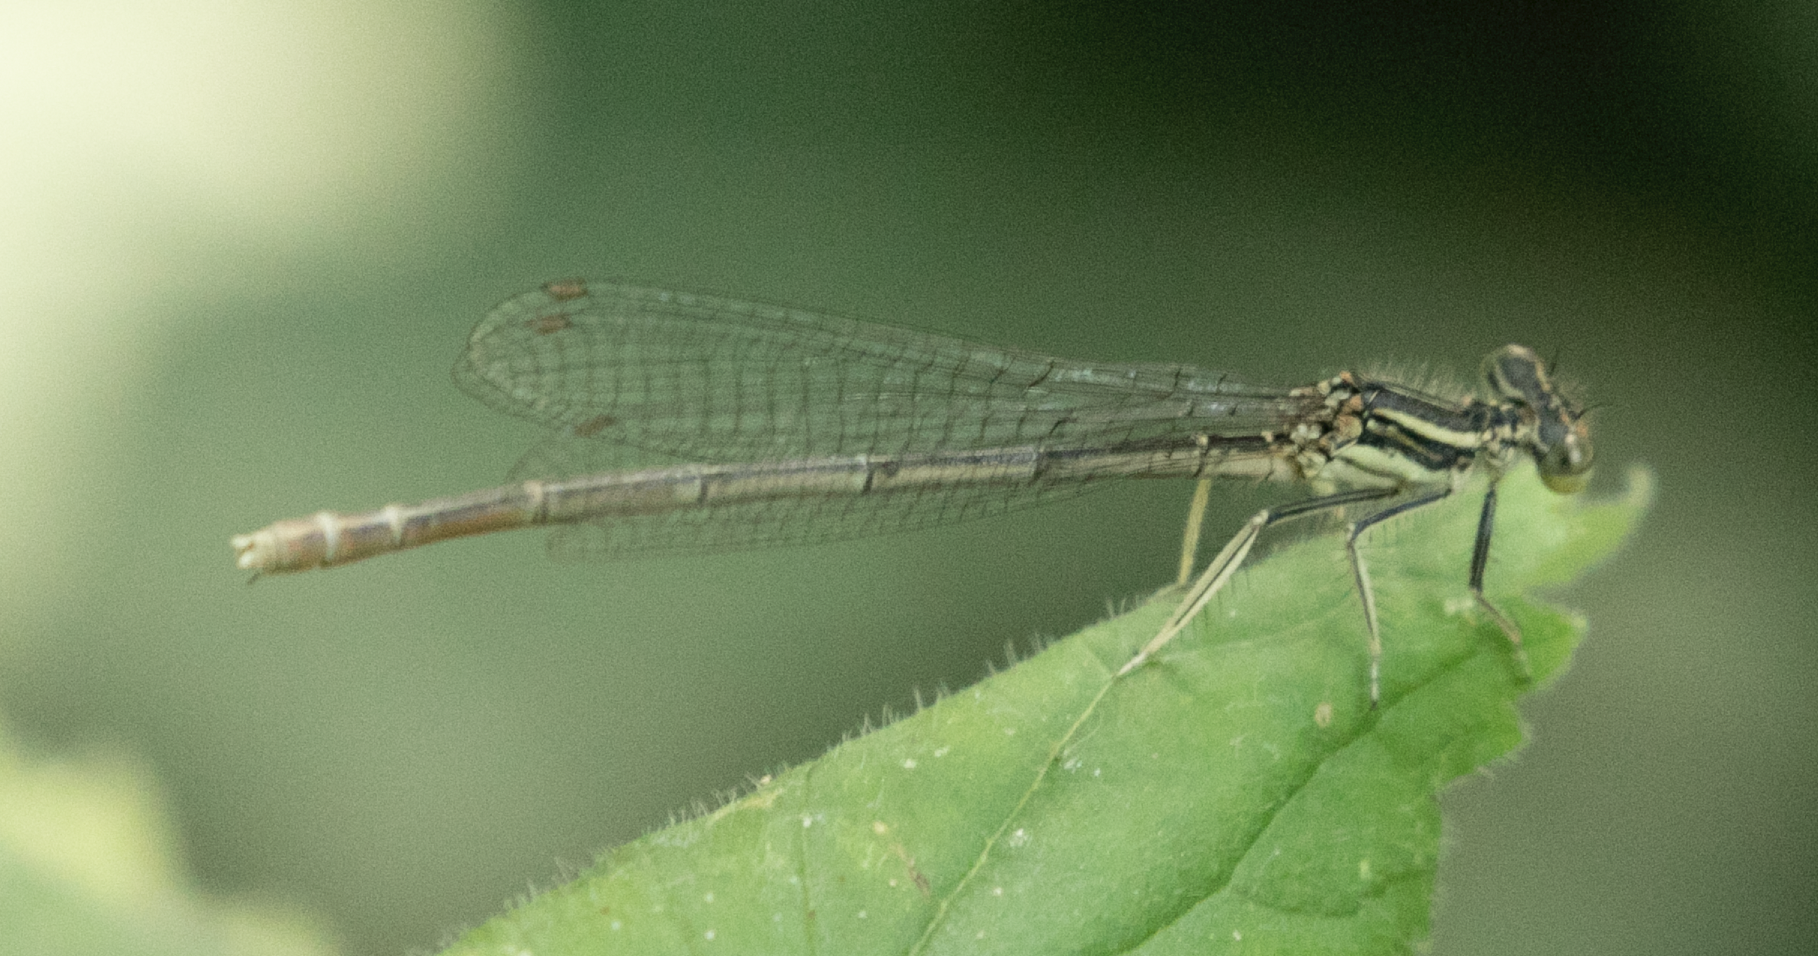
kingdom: Animalia
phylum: Arthropoda
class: Insecta
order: Odonata
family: Platycnemididae
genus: Platycnemis
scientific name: Platycnemis pennipes
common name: White-legged damselfly
